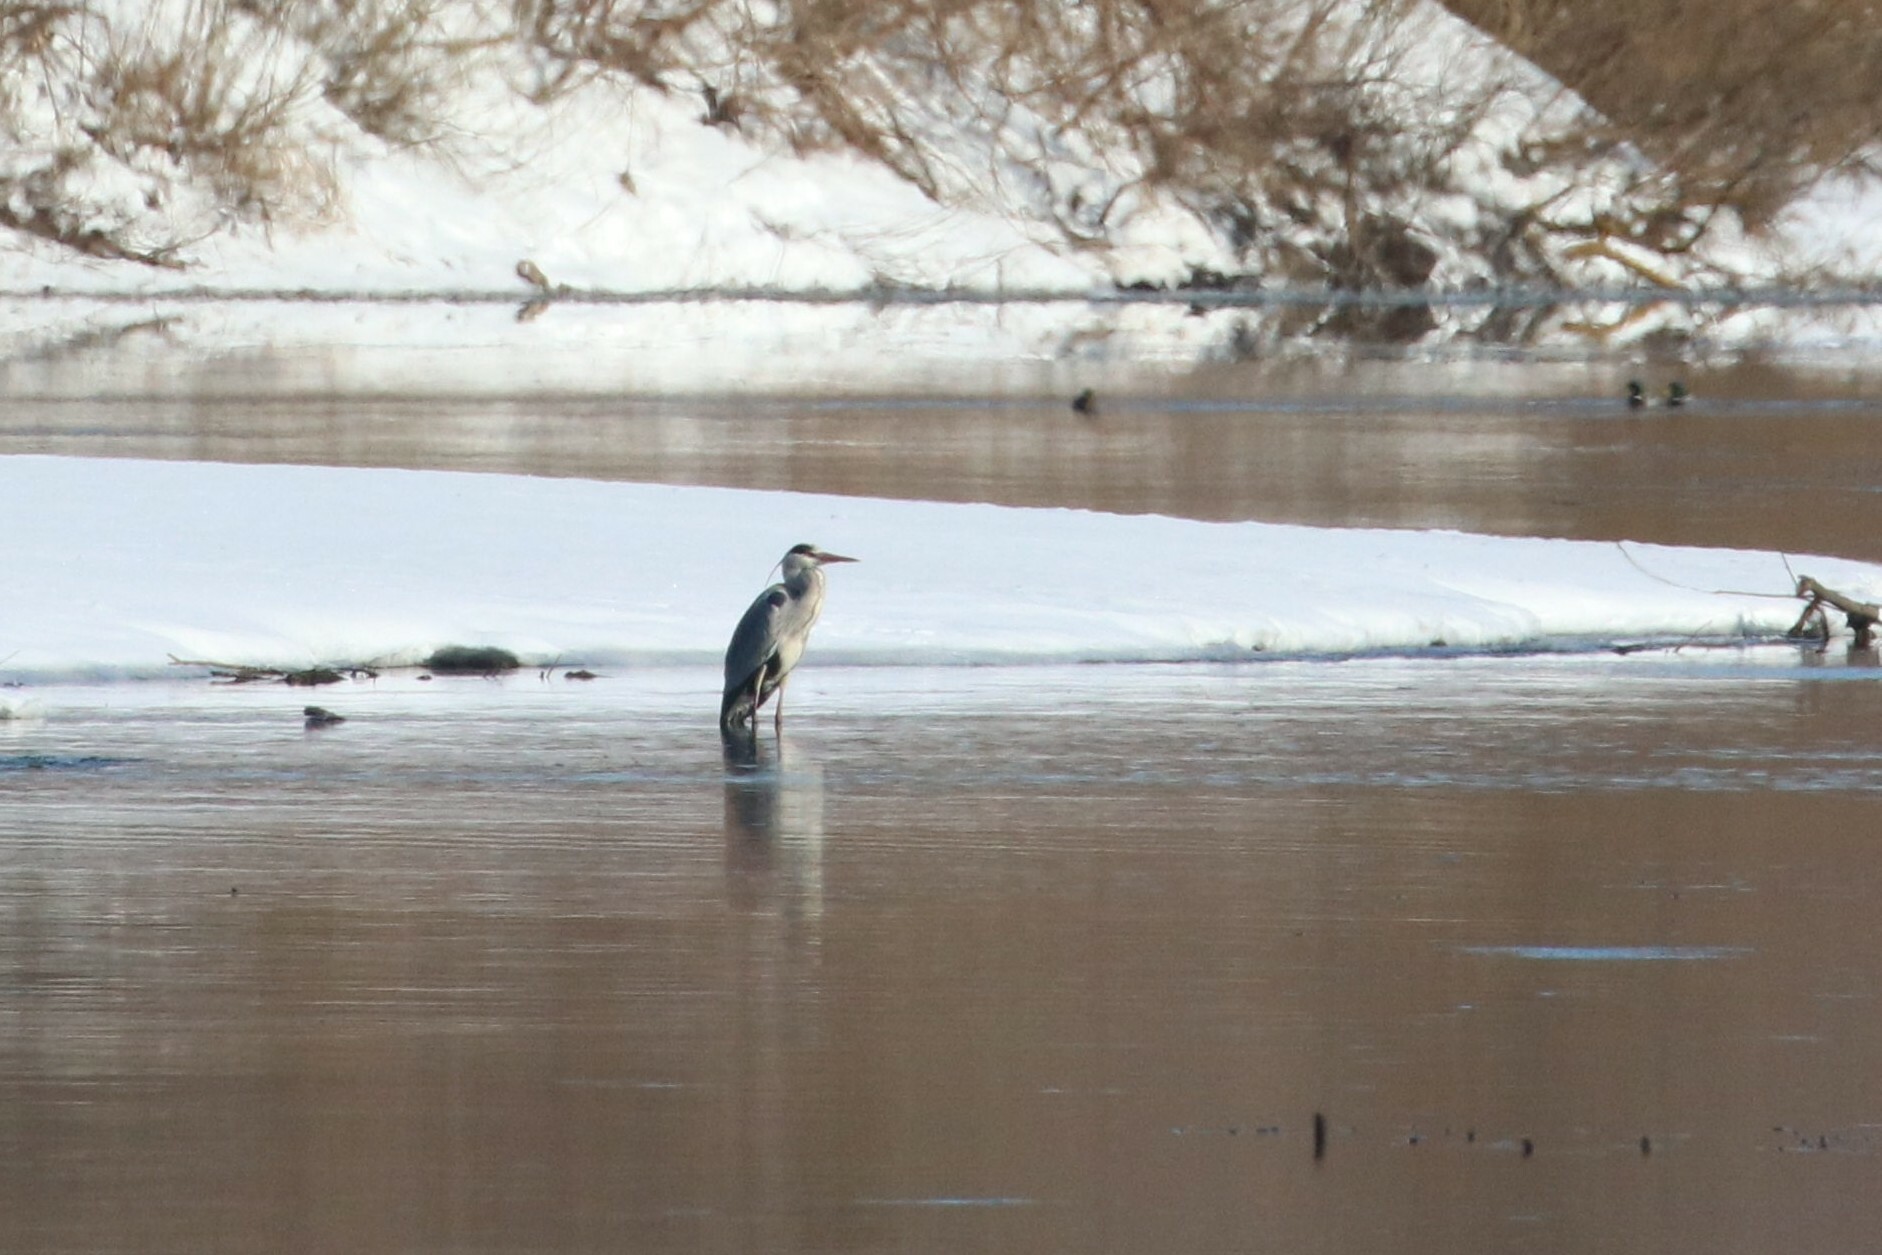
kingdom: Animalia
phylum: Chordata
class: Aves
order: Pelecaniformes
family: Ardeidae
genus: Ardea
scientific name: Ardea cinerea
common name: Grey heron
